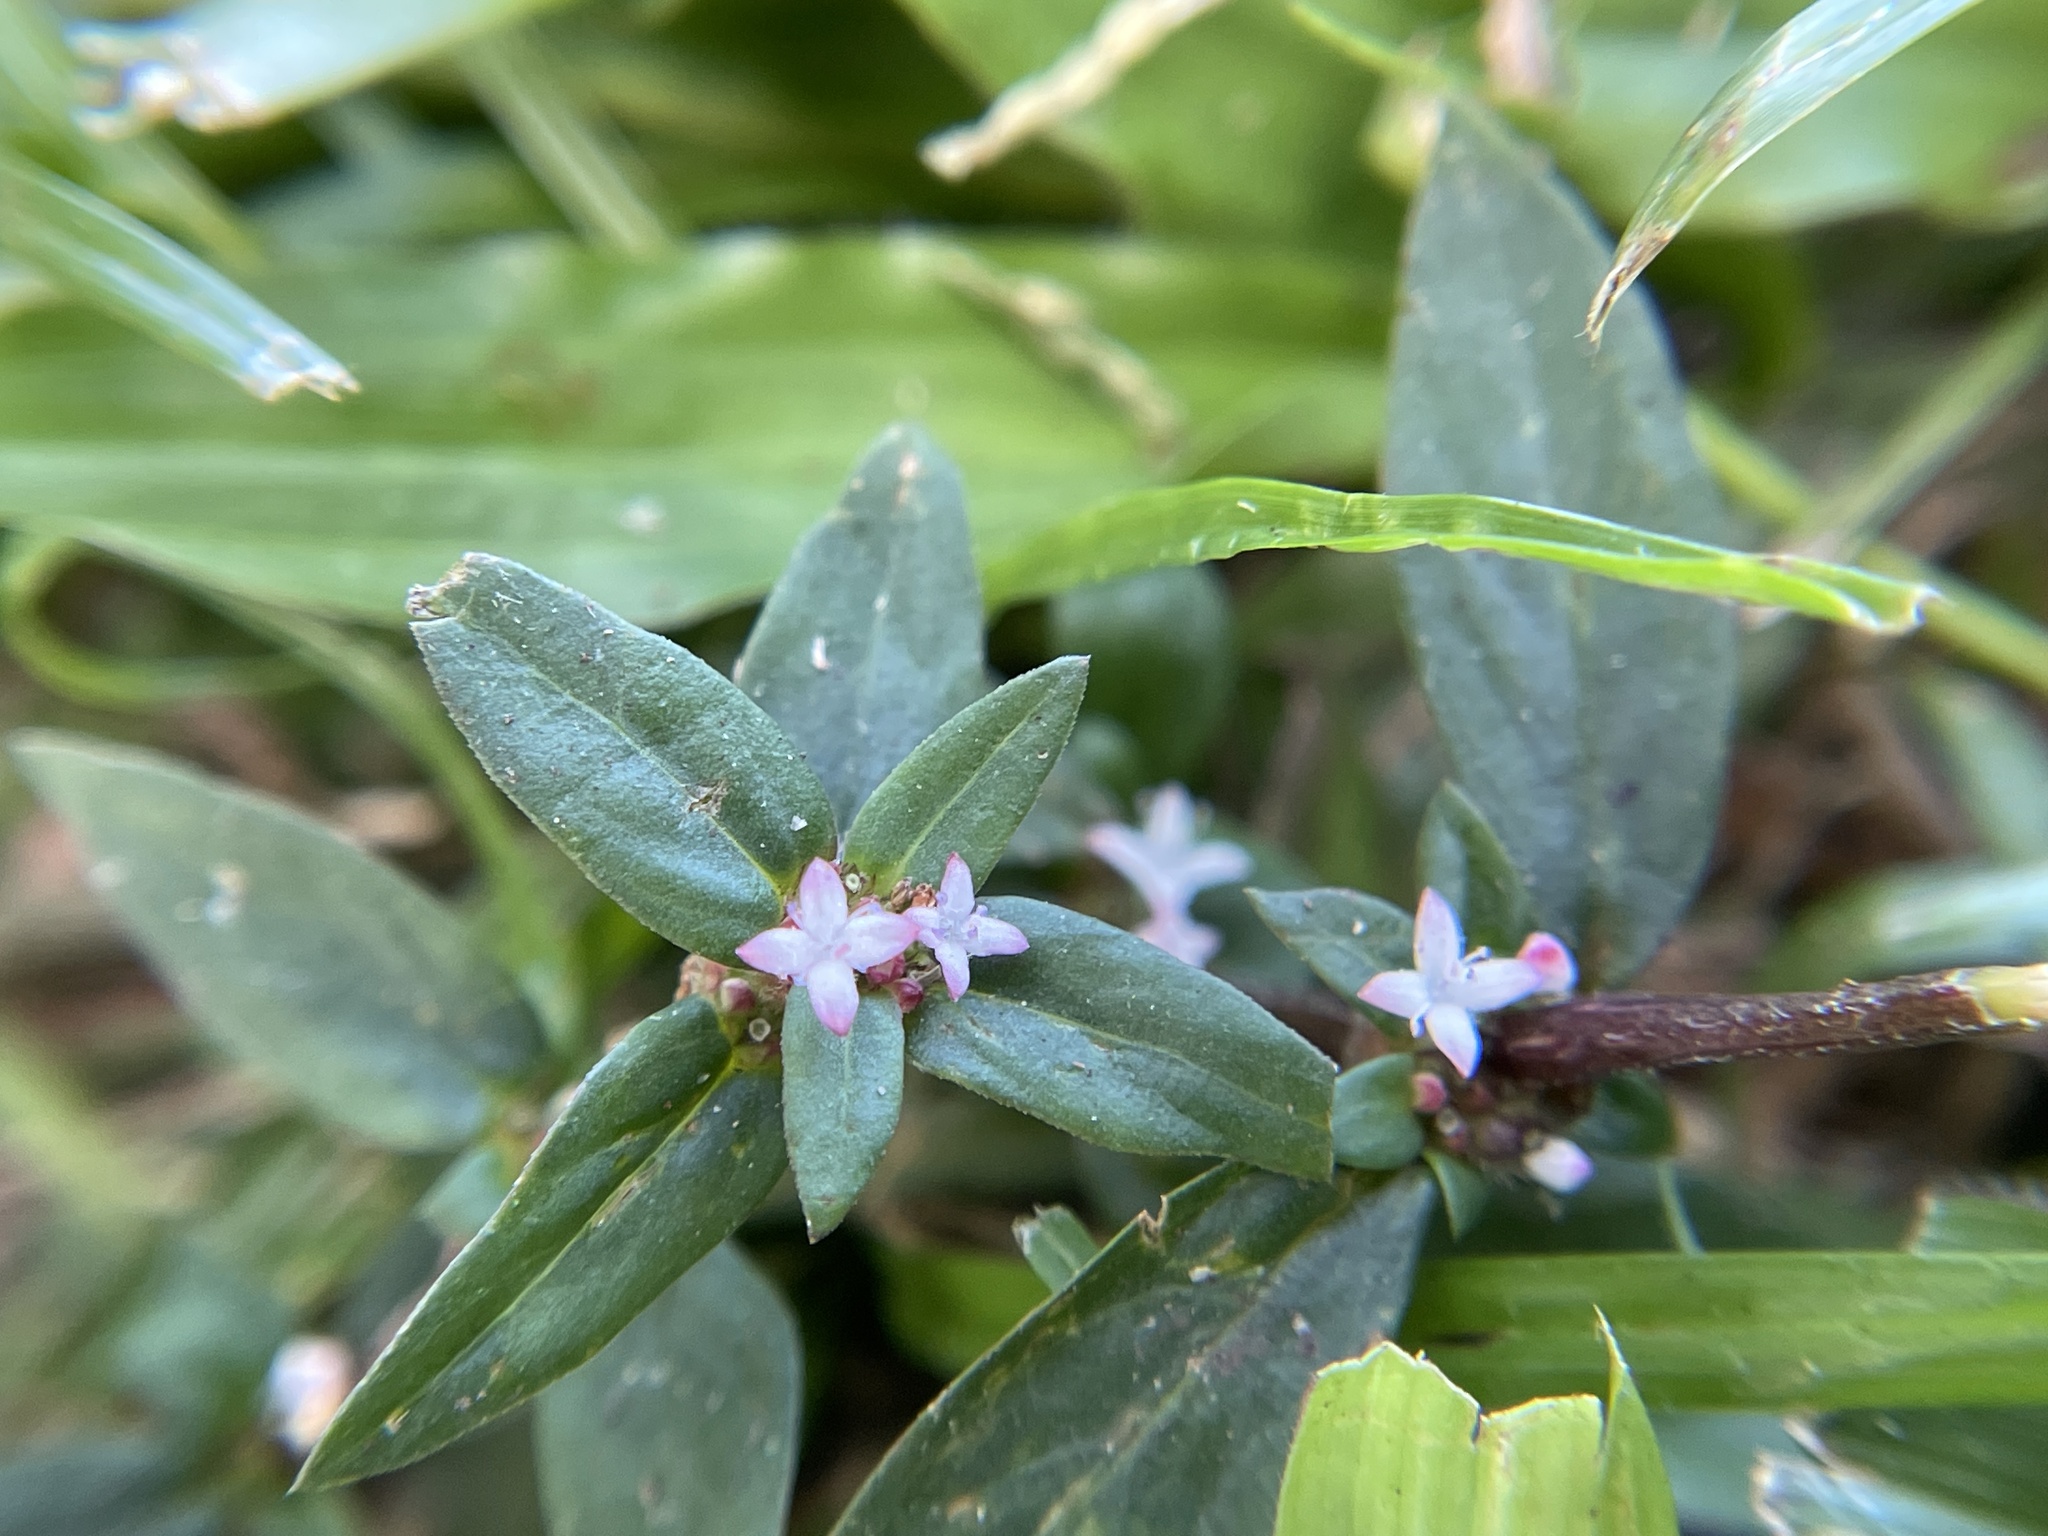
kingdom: Plantae
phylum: Tracheophyta
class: Magnoliopsida
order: Gentianales
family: Rubiaceae
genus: Spermacoce
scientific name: Spermacoce remota
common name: Woodland false buttonweed
